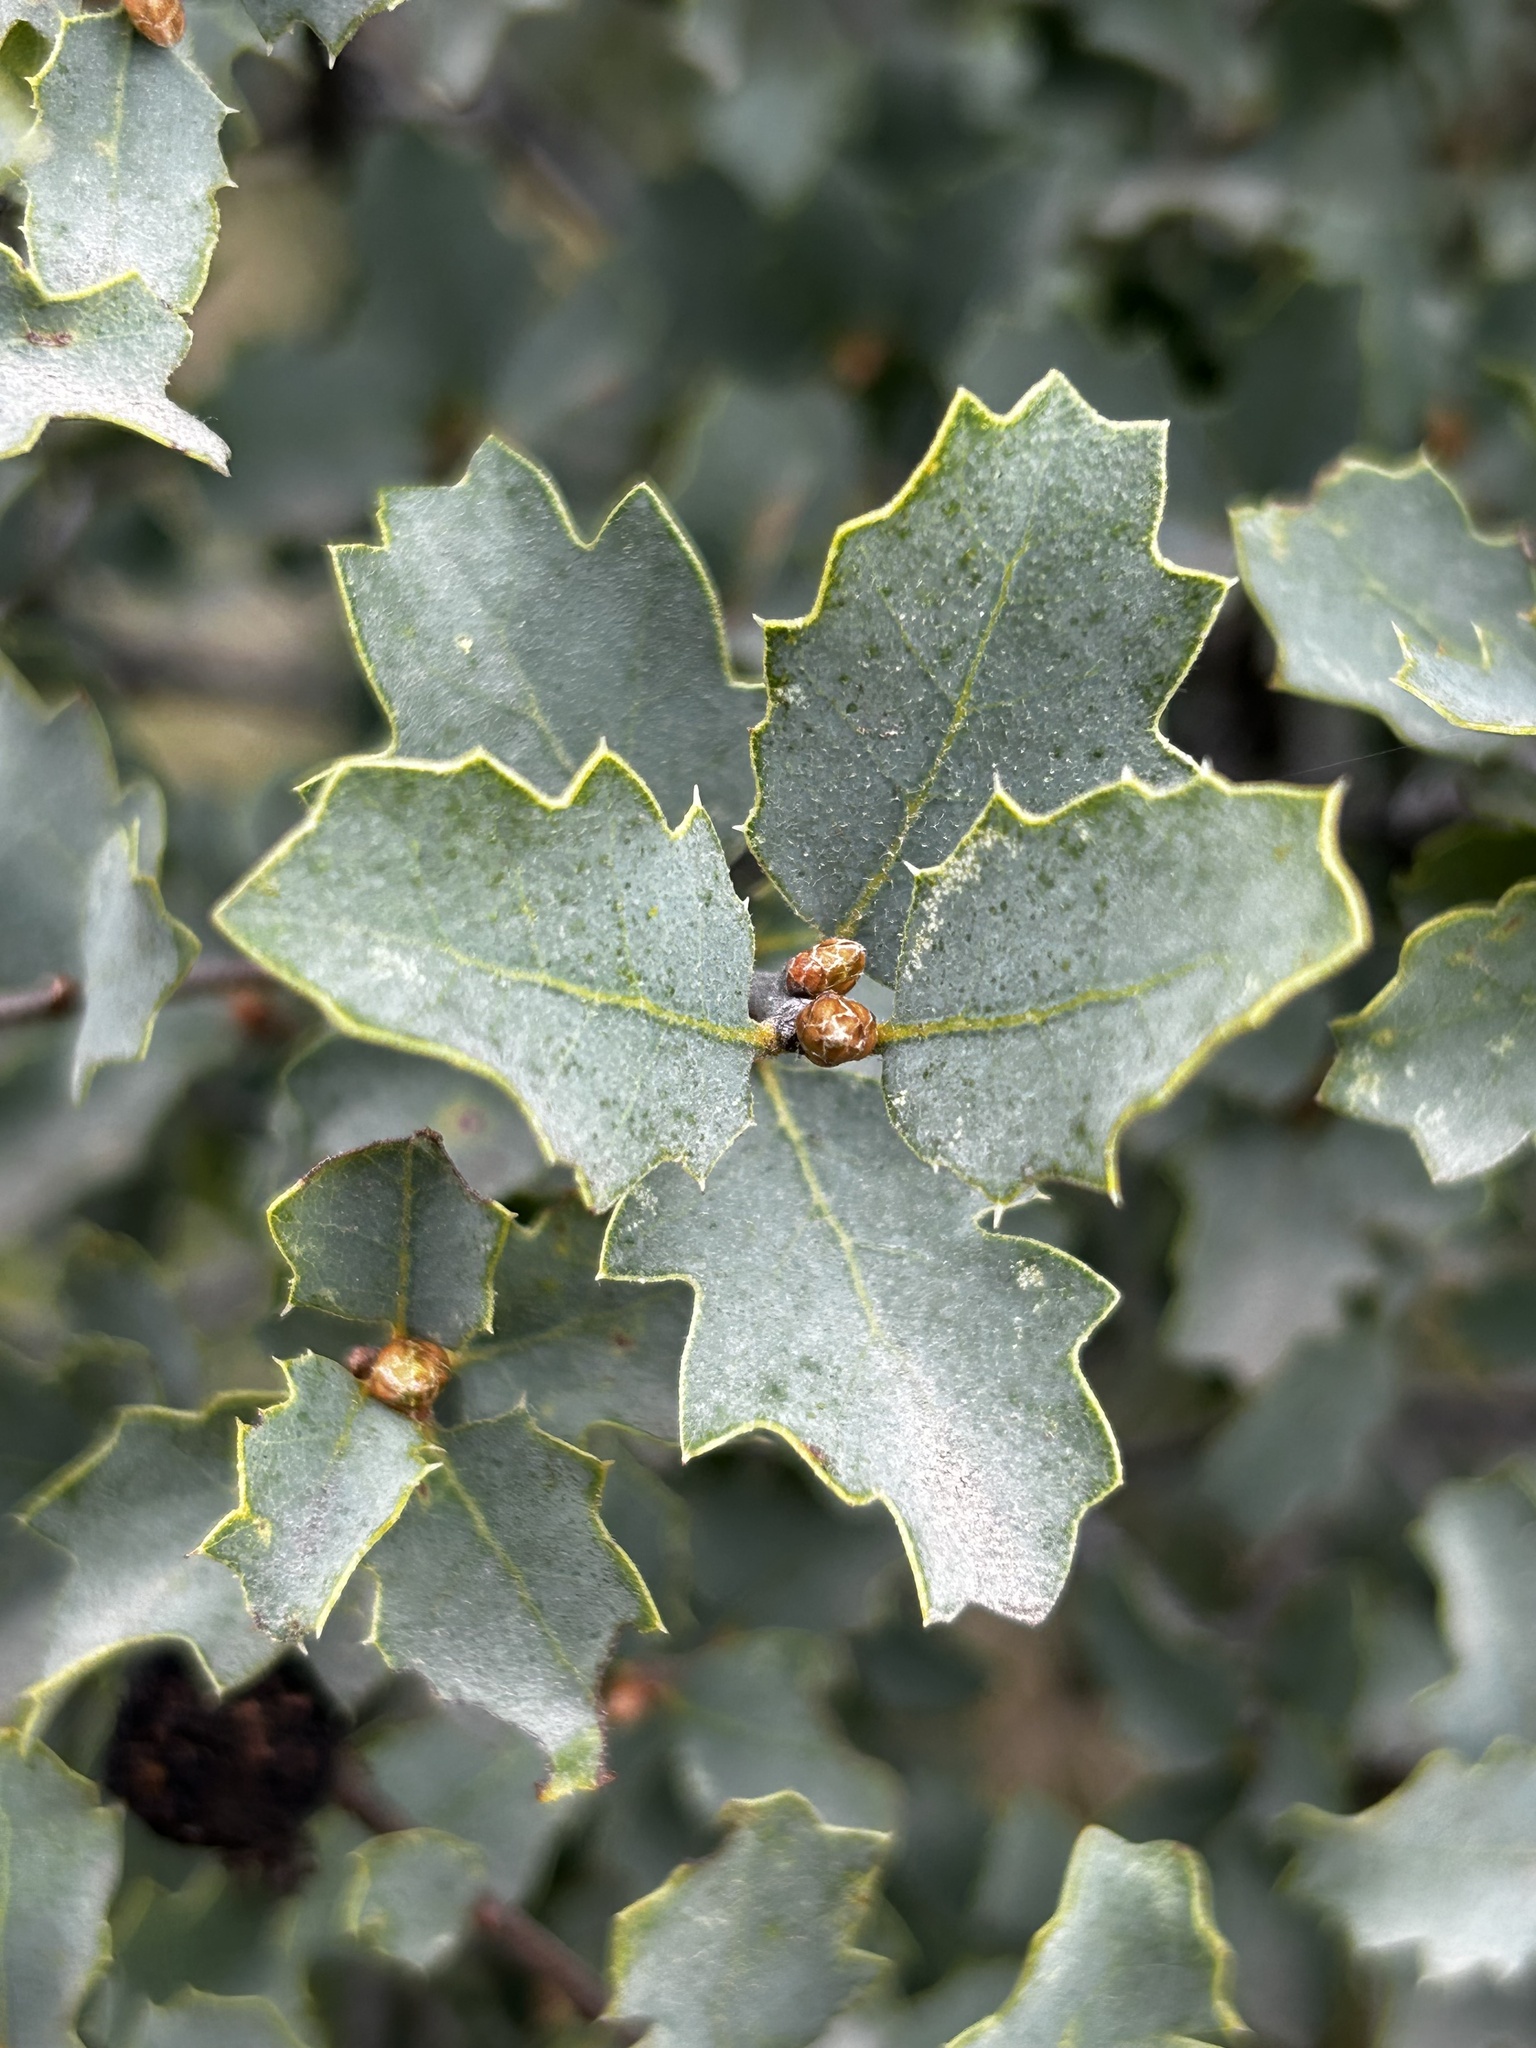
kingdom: Plantae
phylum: Tracheophyta
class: Magnoliopsida
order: Fagales
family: Fagaceae
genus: Quercus
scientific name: Quercus john-tuckeri
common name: Tucker's oak
